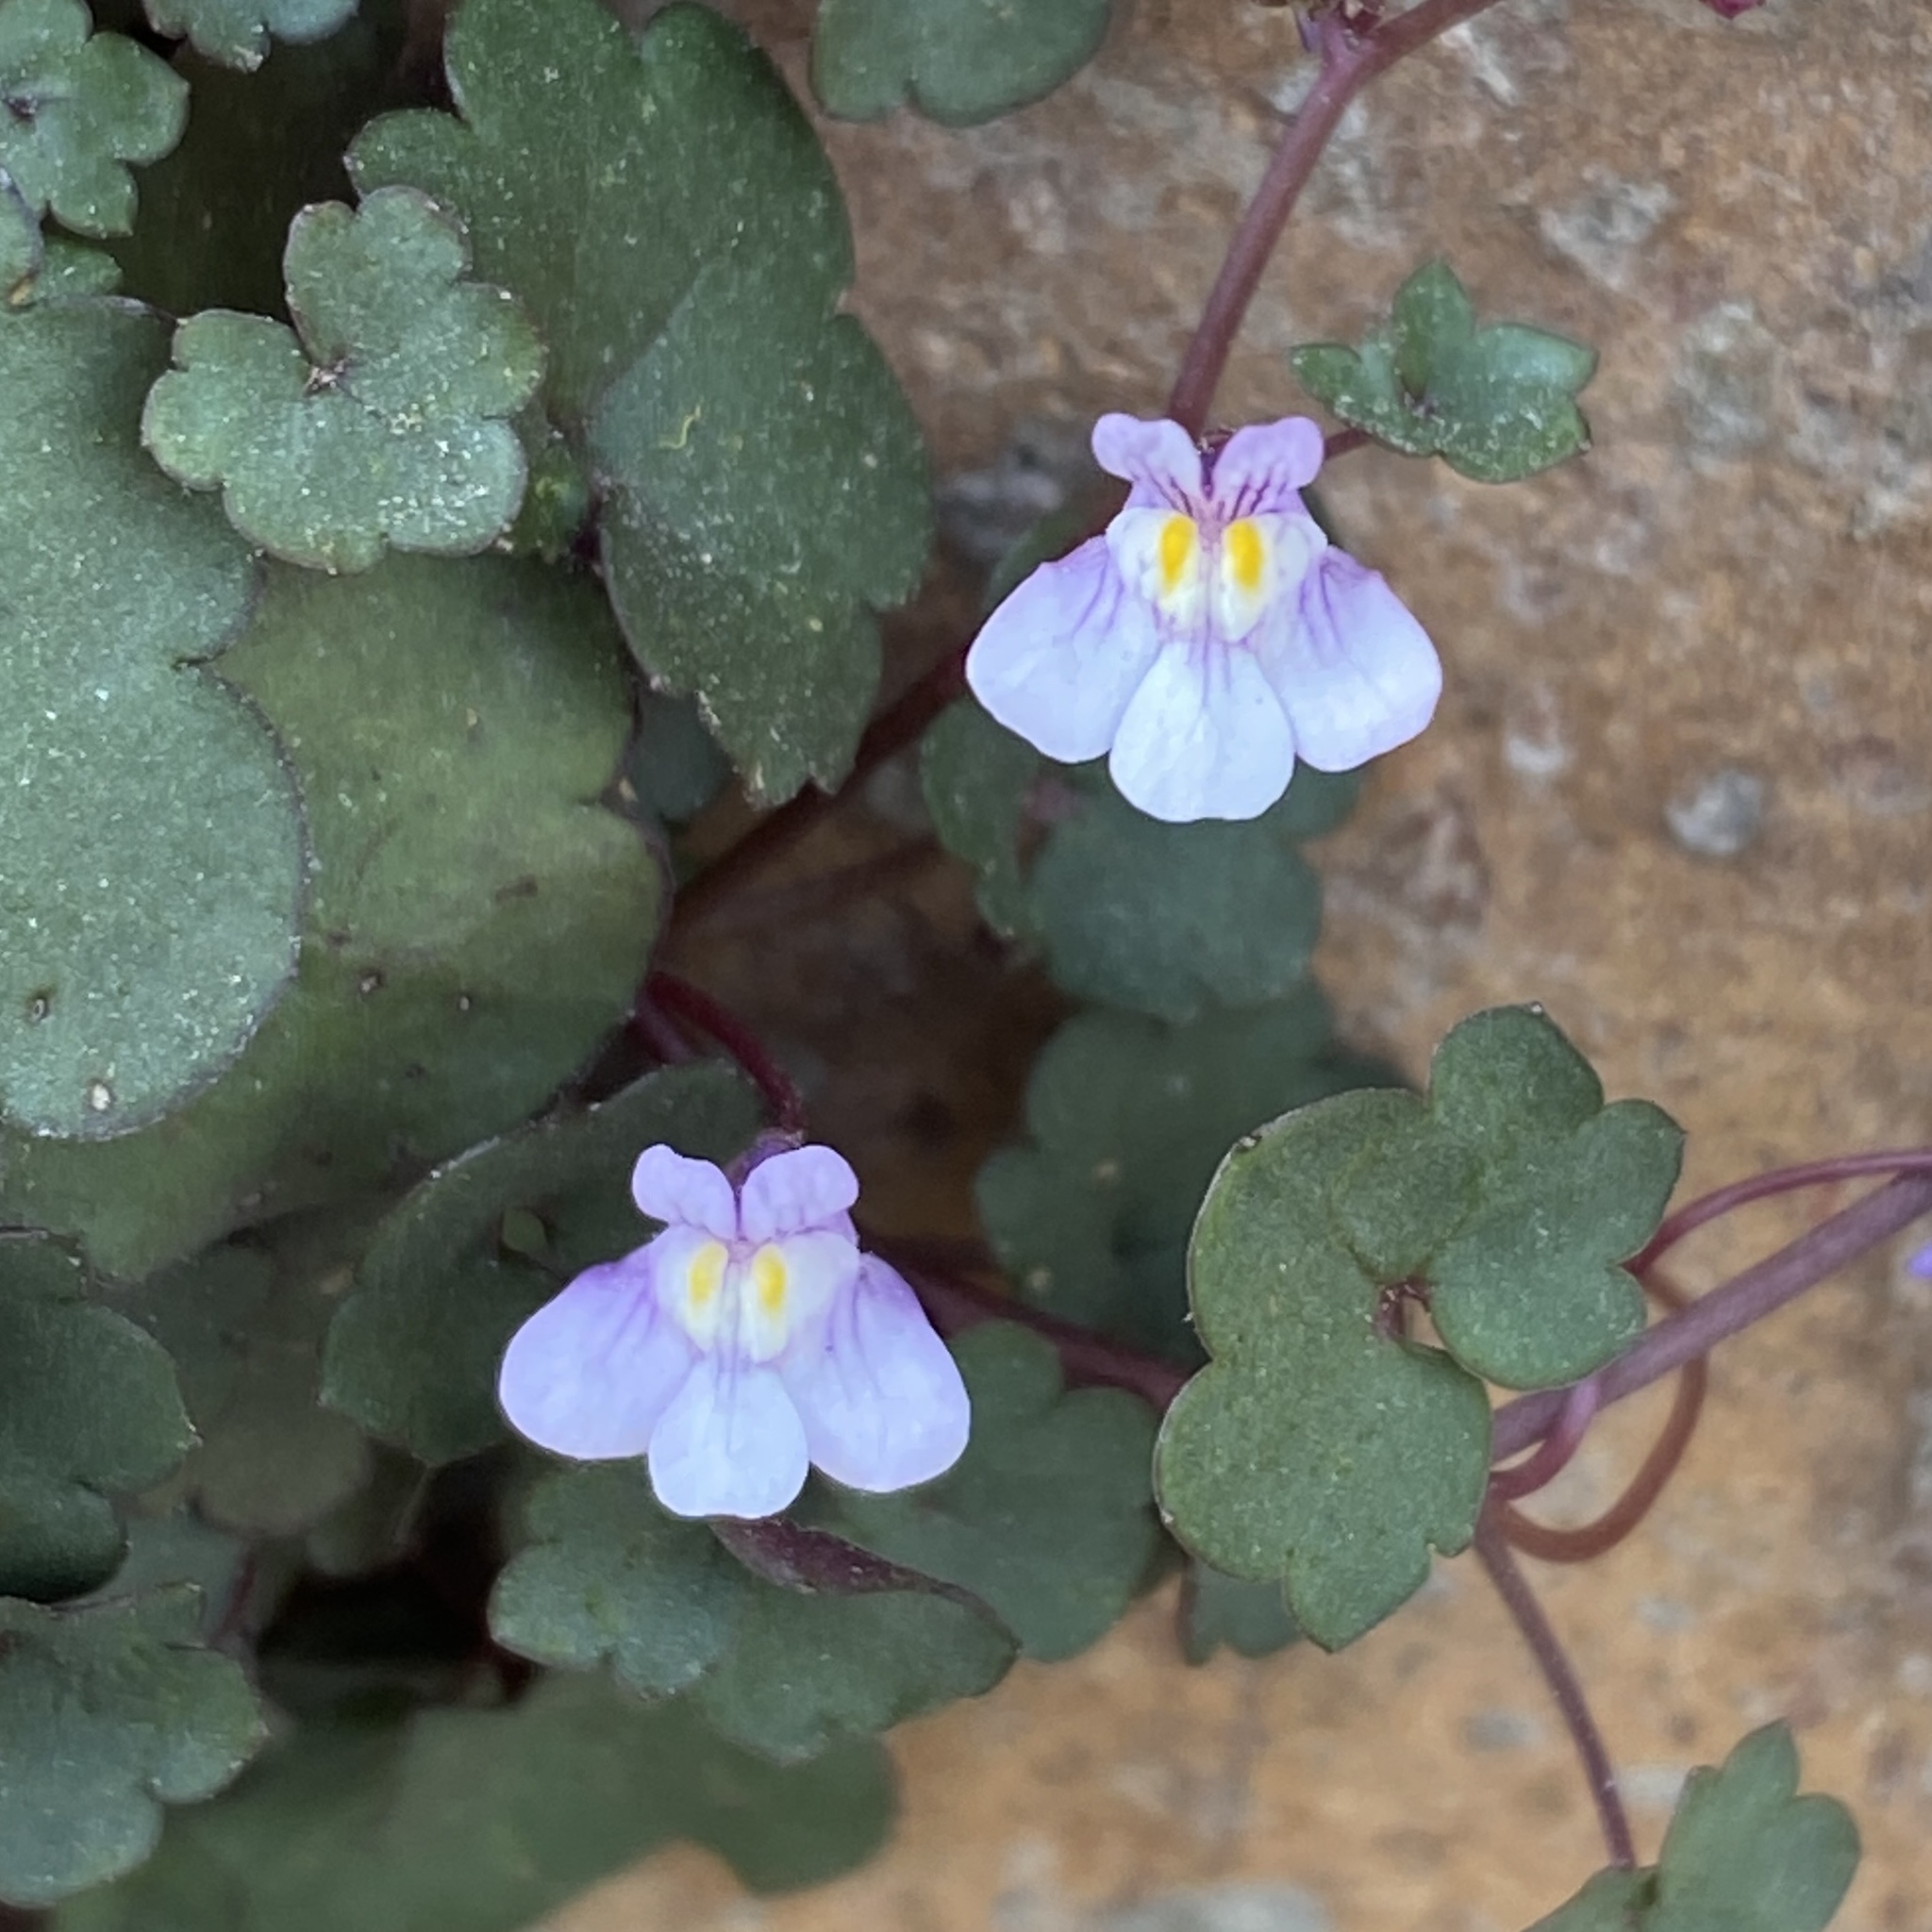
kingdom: Plantae
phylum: Tracheophyta
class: Magnoliopsida
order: Lamiales
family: Plantaginaceae
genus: Cymbalaria
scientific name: Cymbalaria muralis
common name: Ivy-leaved toadflax
